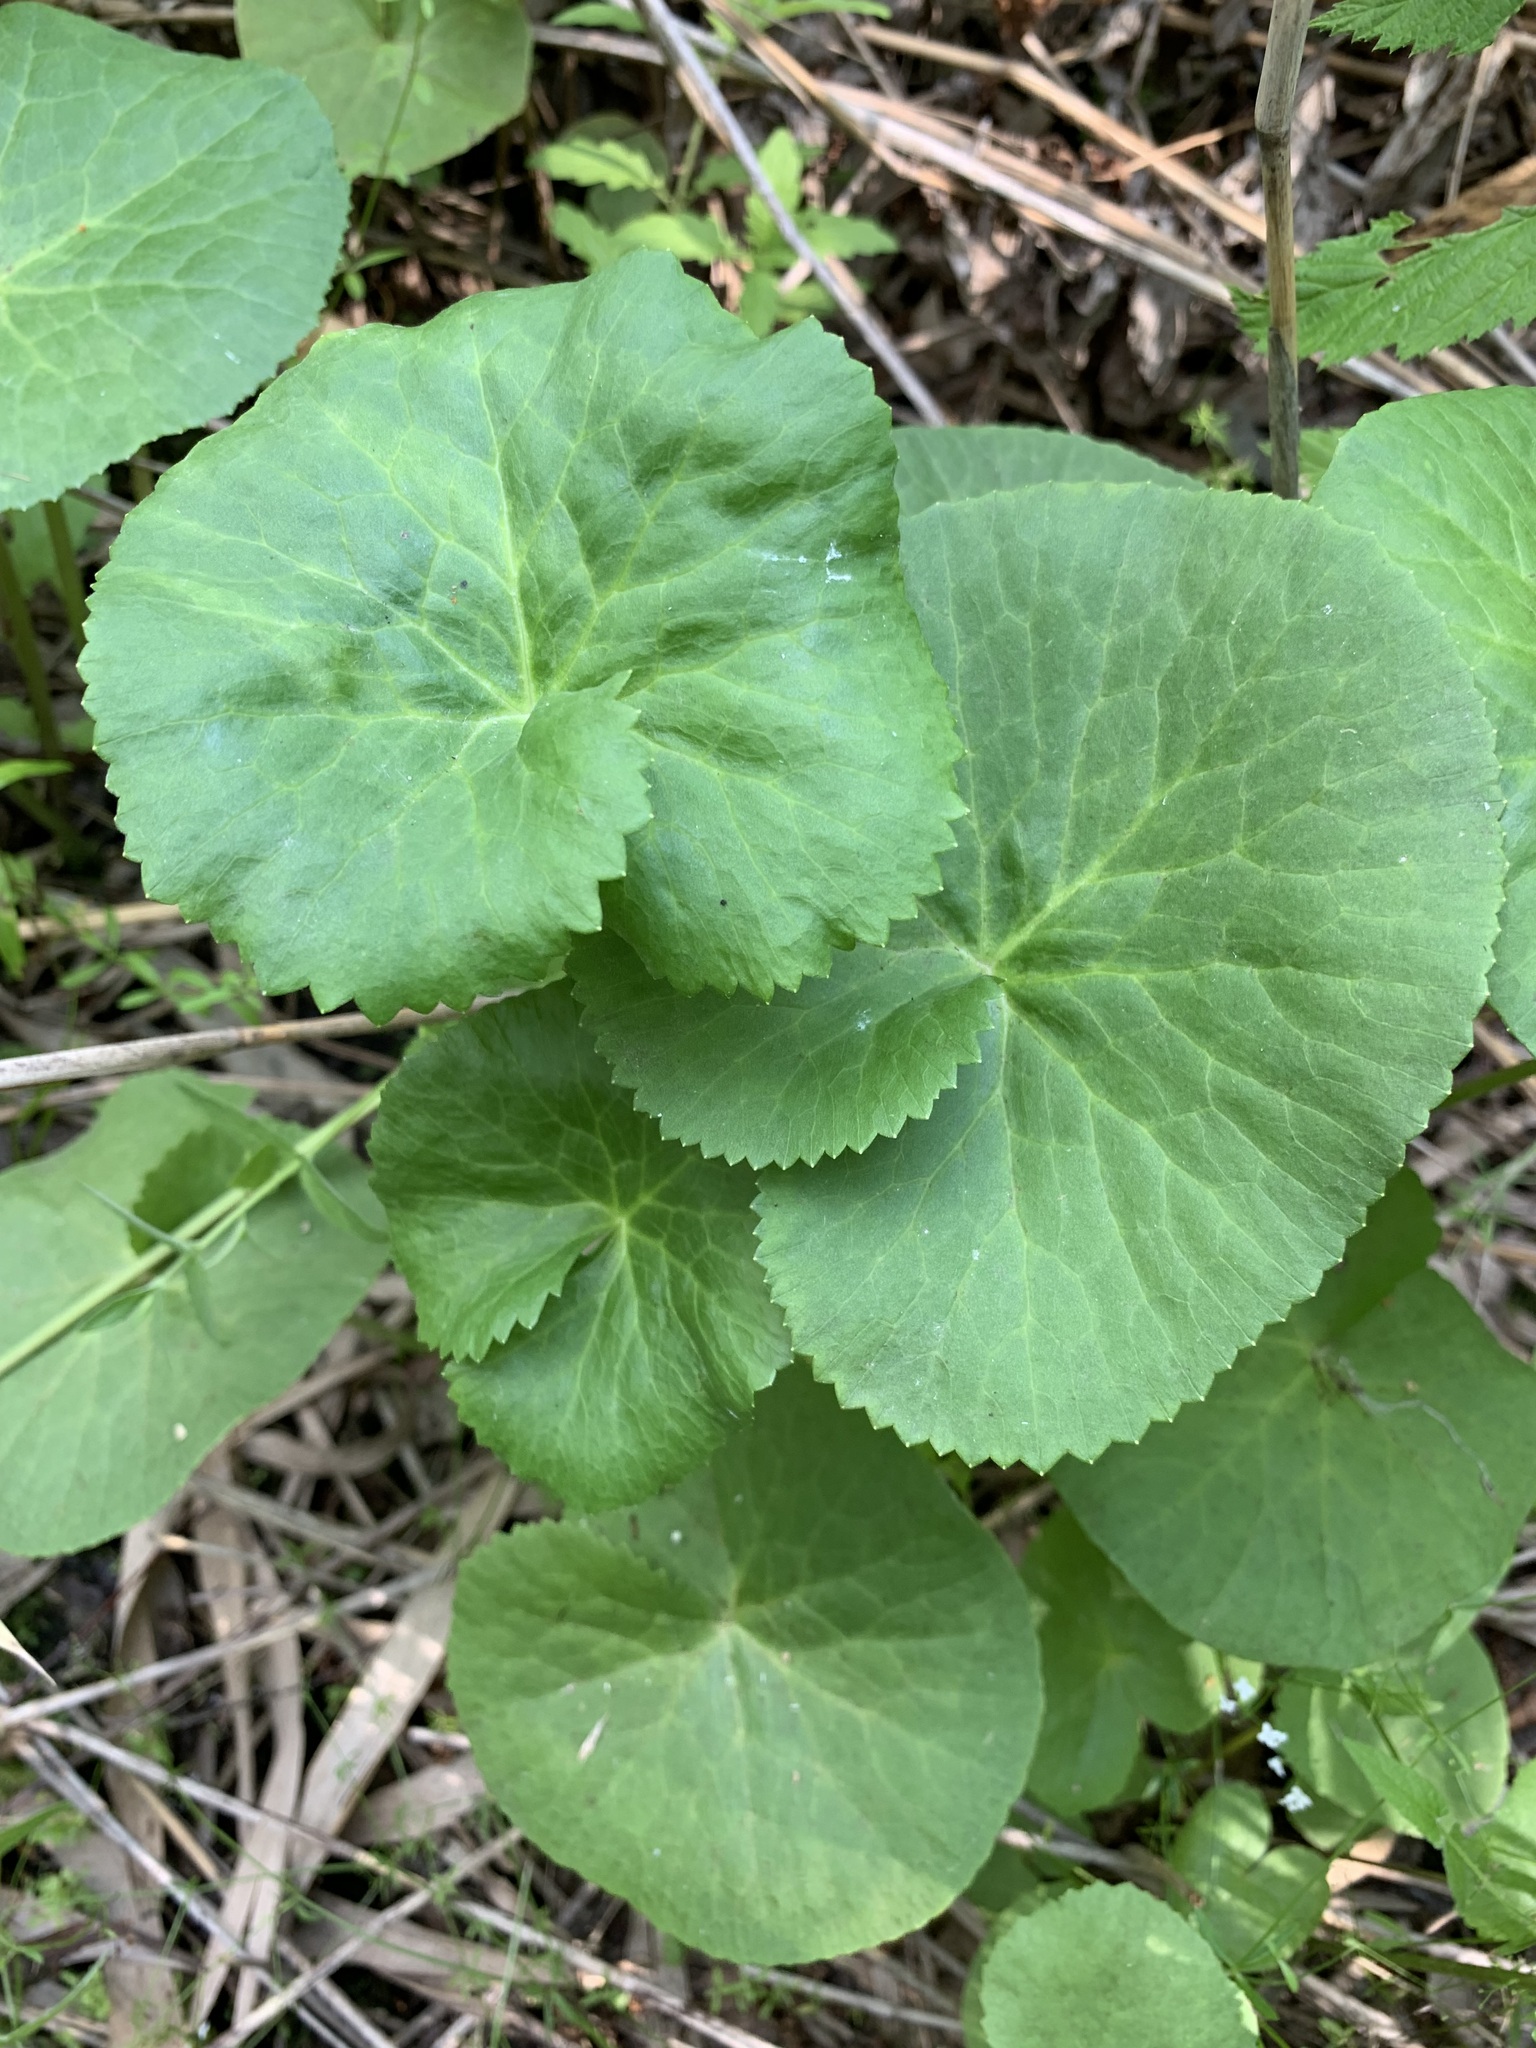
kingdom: Plantae
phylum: Tracheophyta
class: Magnoliopsida
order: Ranunculales
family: Ranunculaceae
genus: Caltha
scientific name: Caltha palustris
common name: Marsh marigold
